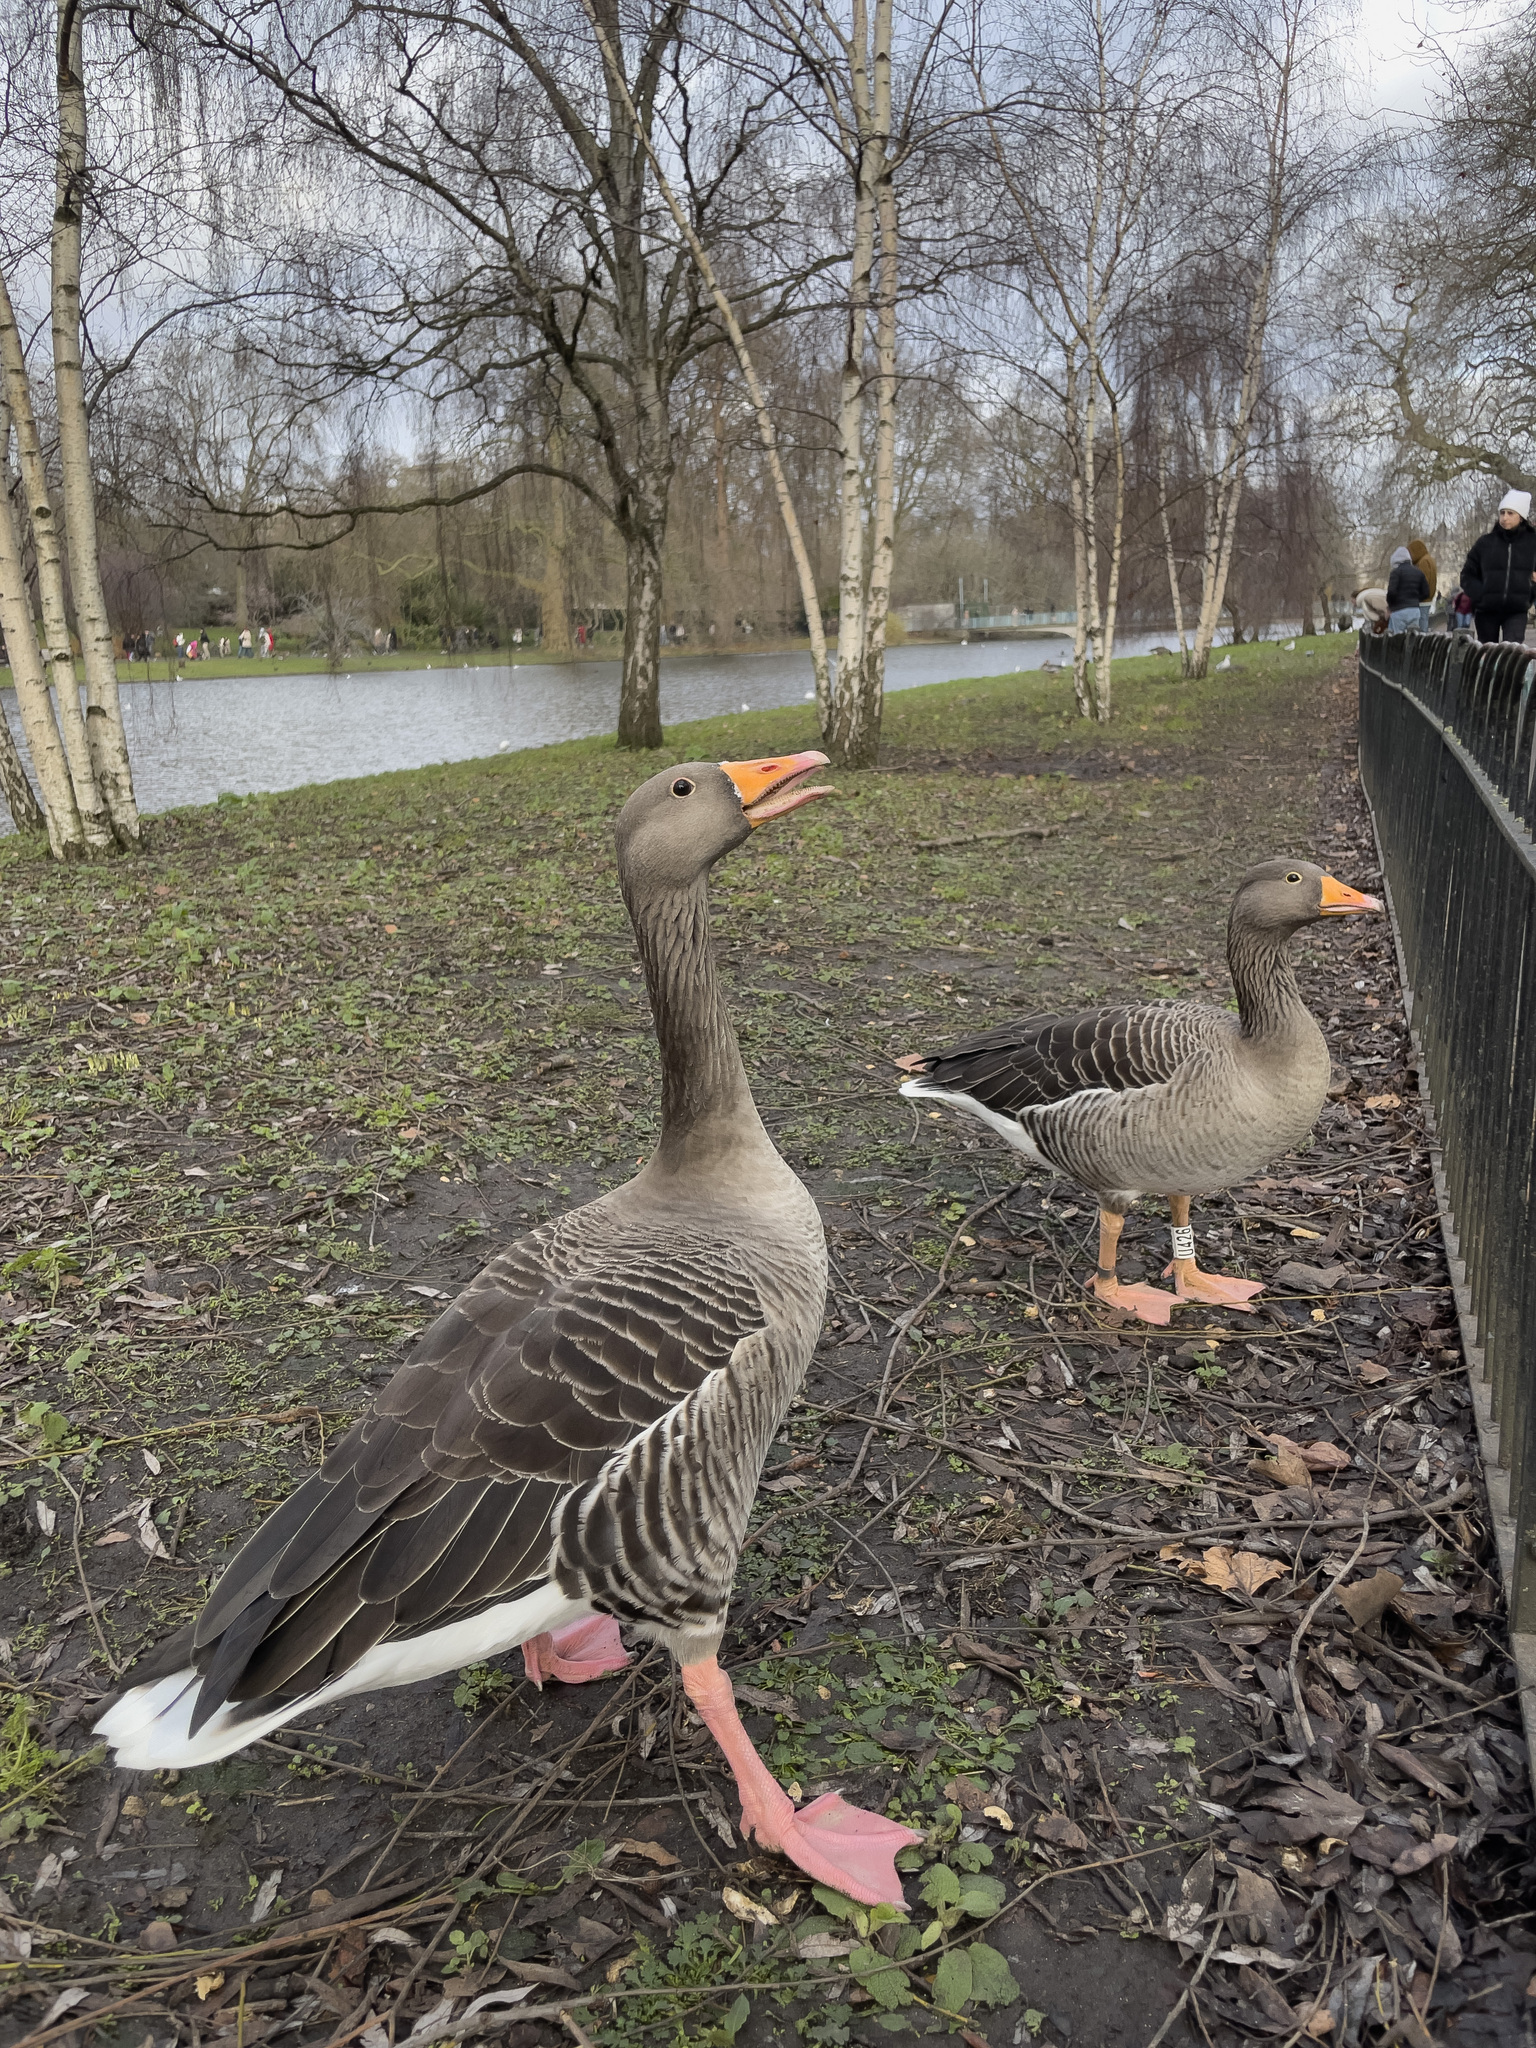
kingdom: Animalia
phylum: Chordata
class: Aves
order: Anseriformes
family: Anatidae
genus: Anser
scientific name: Anser anser
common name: Greylag goose
